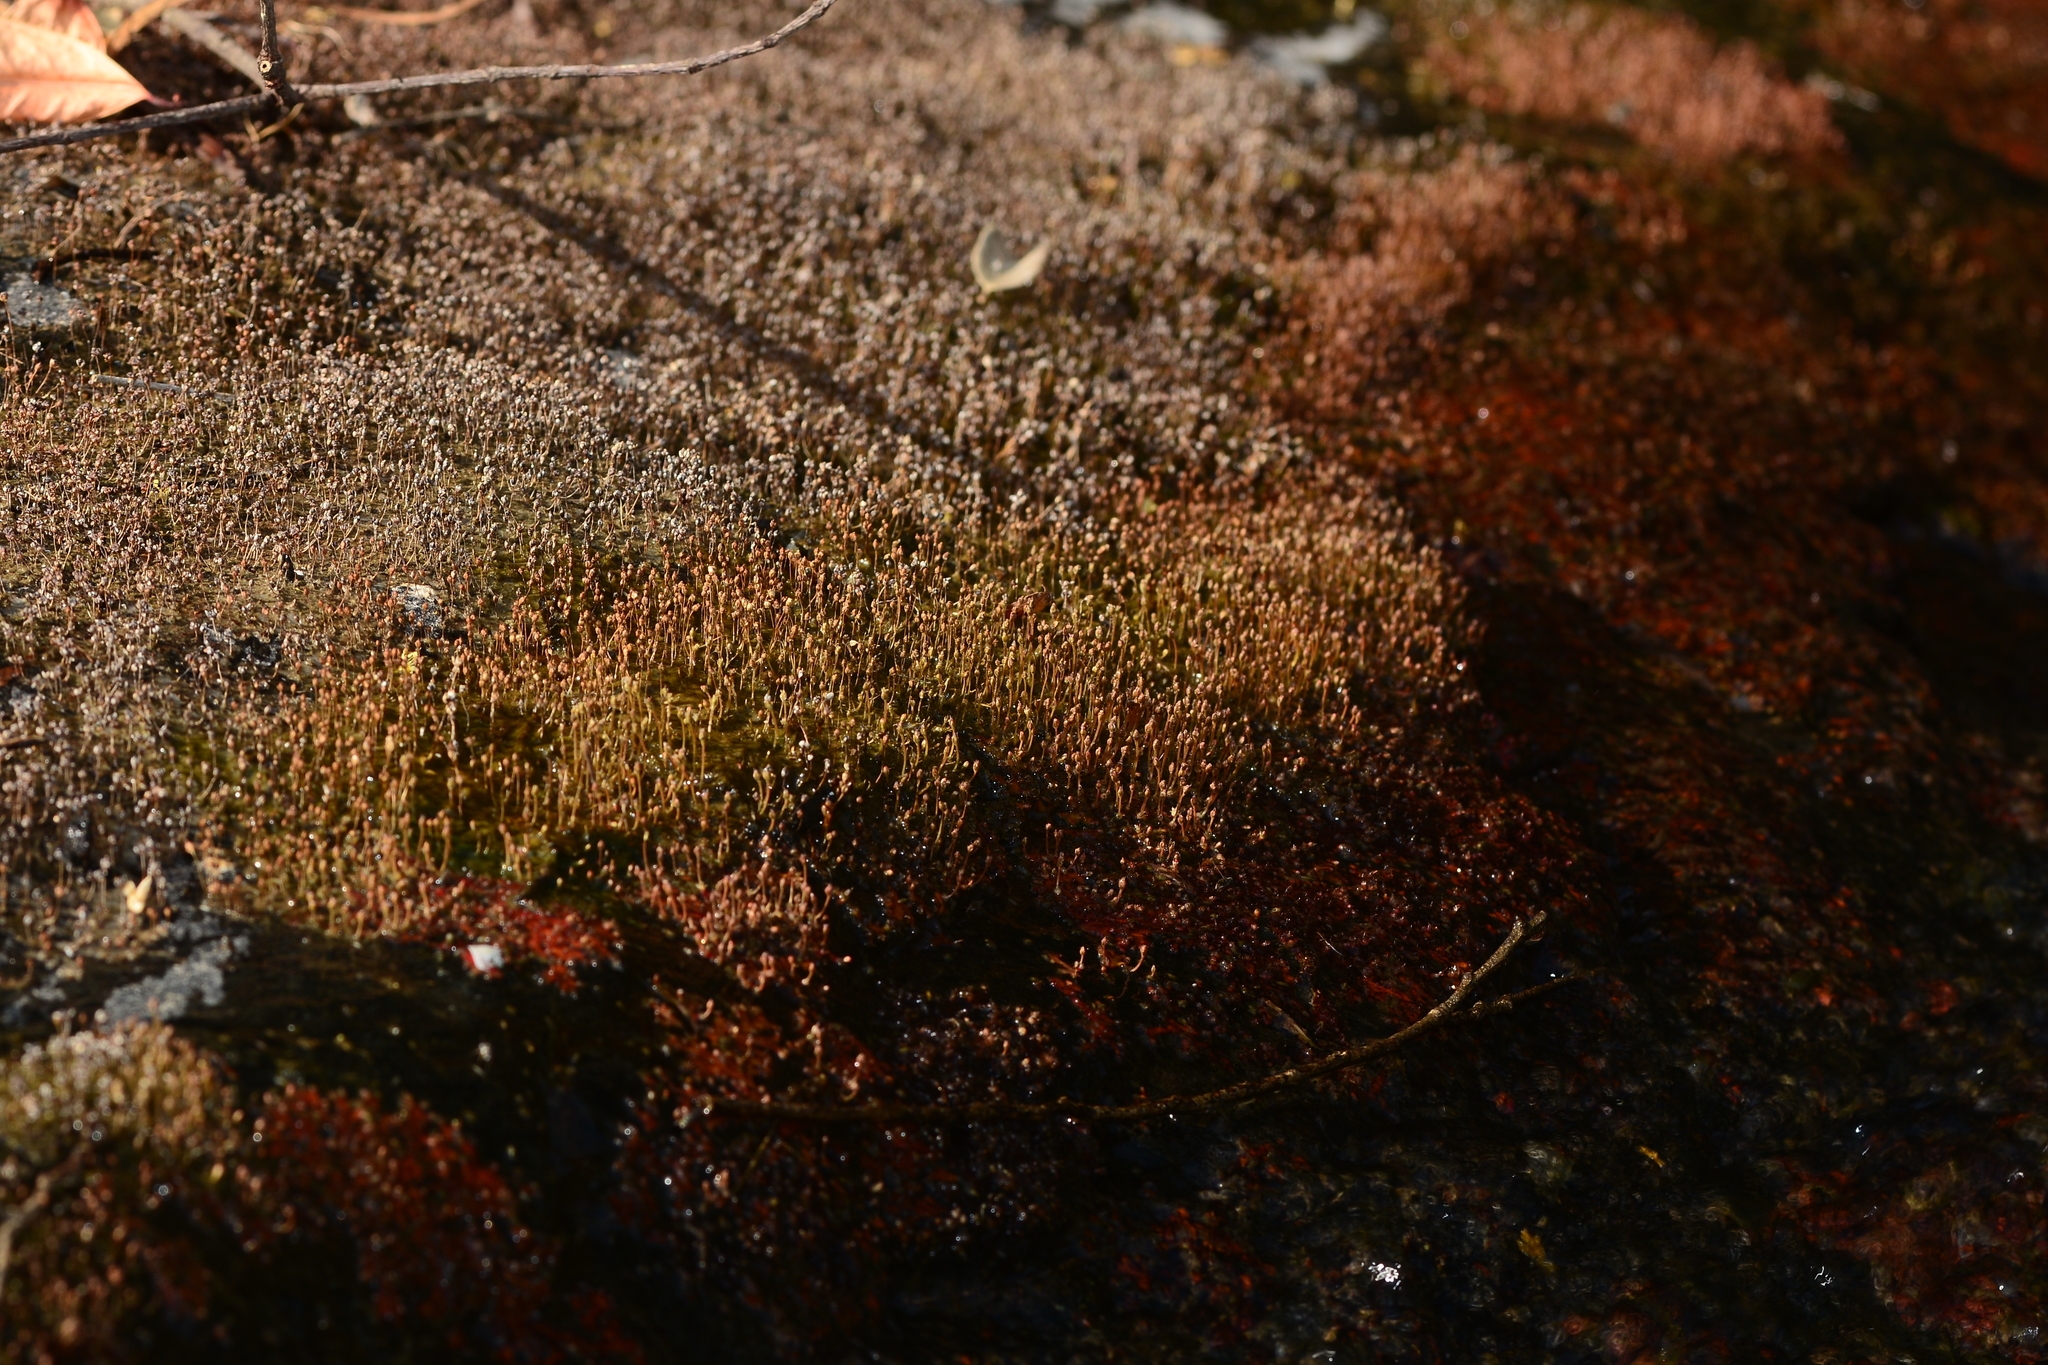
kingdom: Plantae
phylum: Tracheophyta
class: Magnoliopsida
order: Malpighiales
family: Podostemaceae
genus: Dalzellia
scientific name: Dalzellia ceylanica
